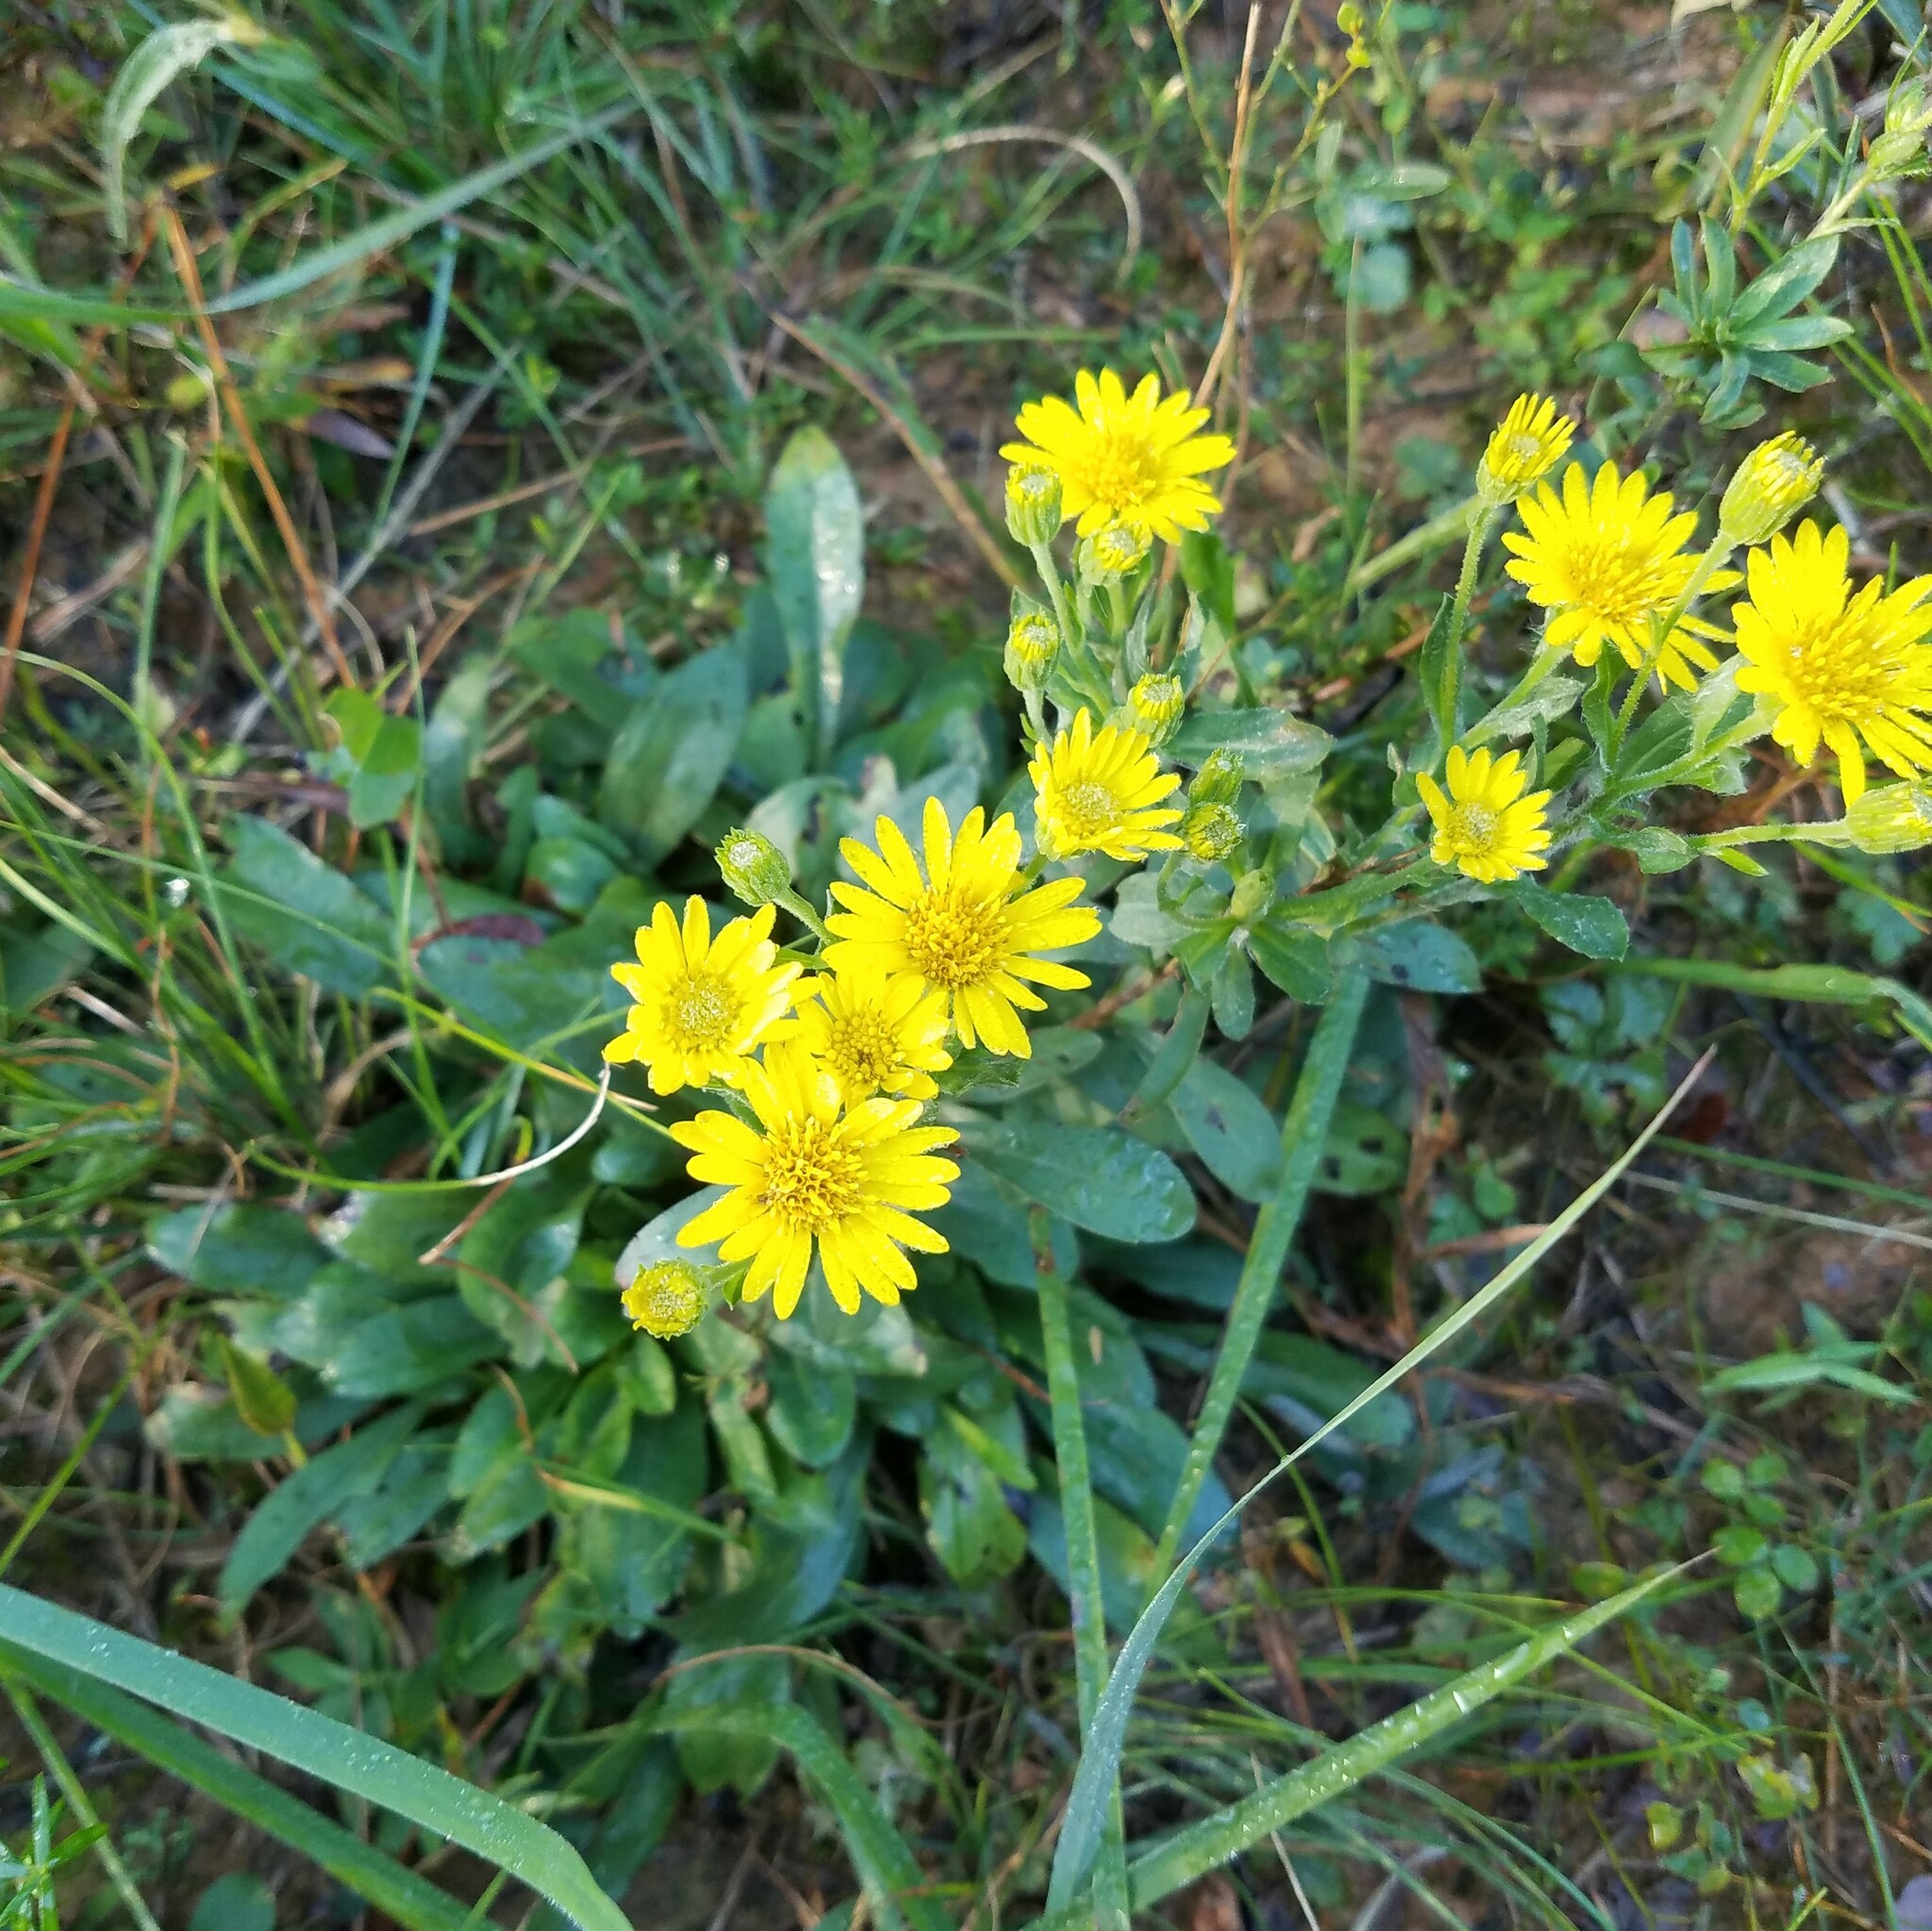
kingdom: Plantae
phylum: Tracheophyta
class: Magnoliopsida
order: Asterales
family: Asteraceae
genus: Chrysopsis
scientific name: Chrysopsis mariana
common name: Maryland golden-aster
